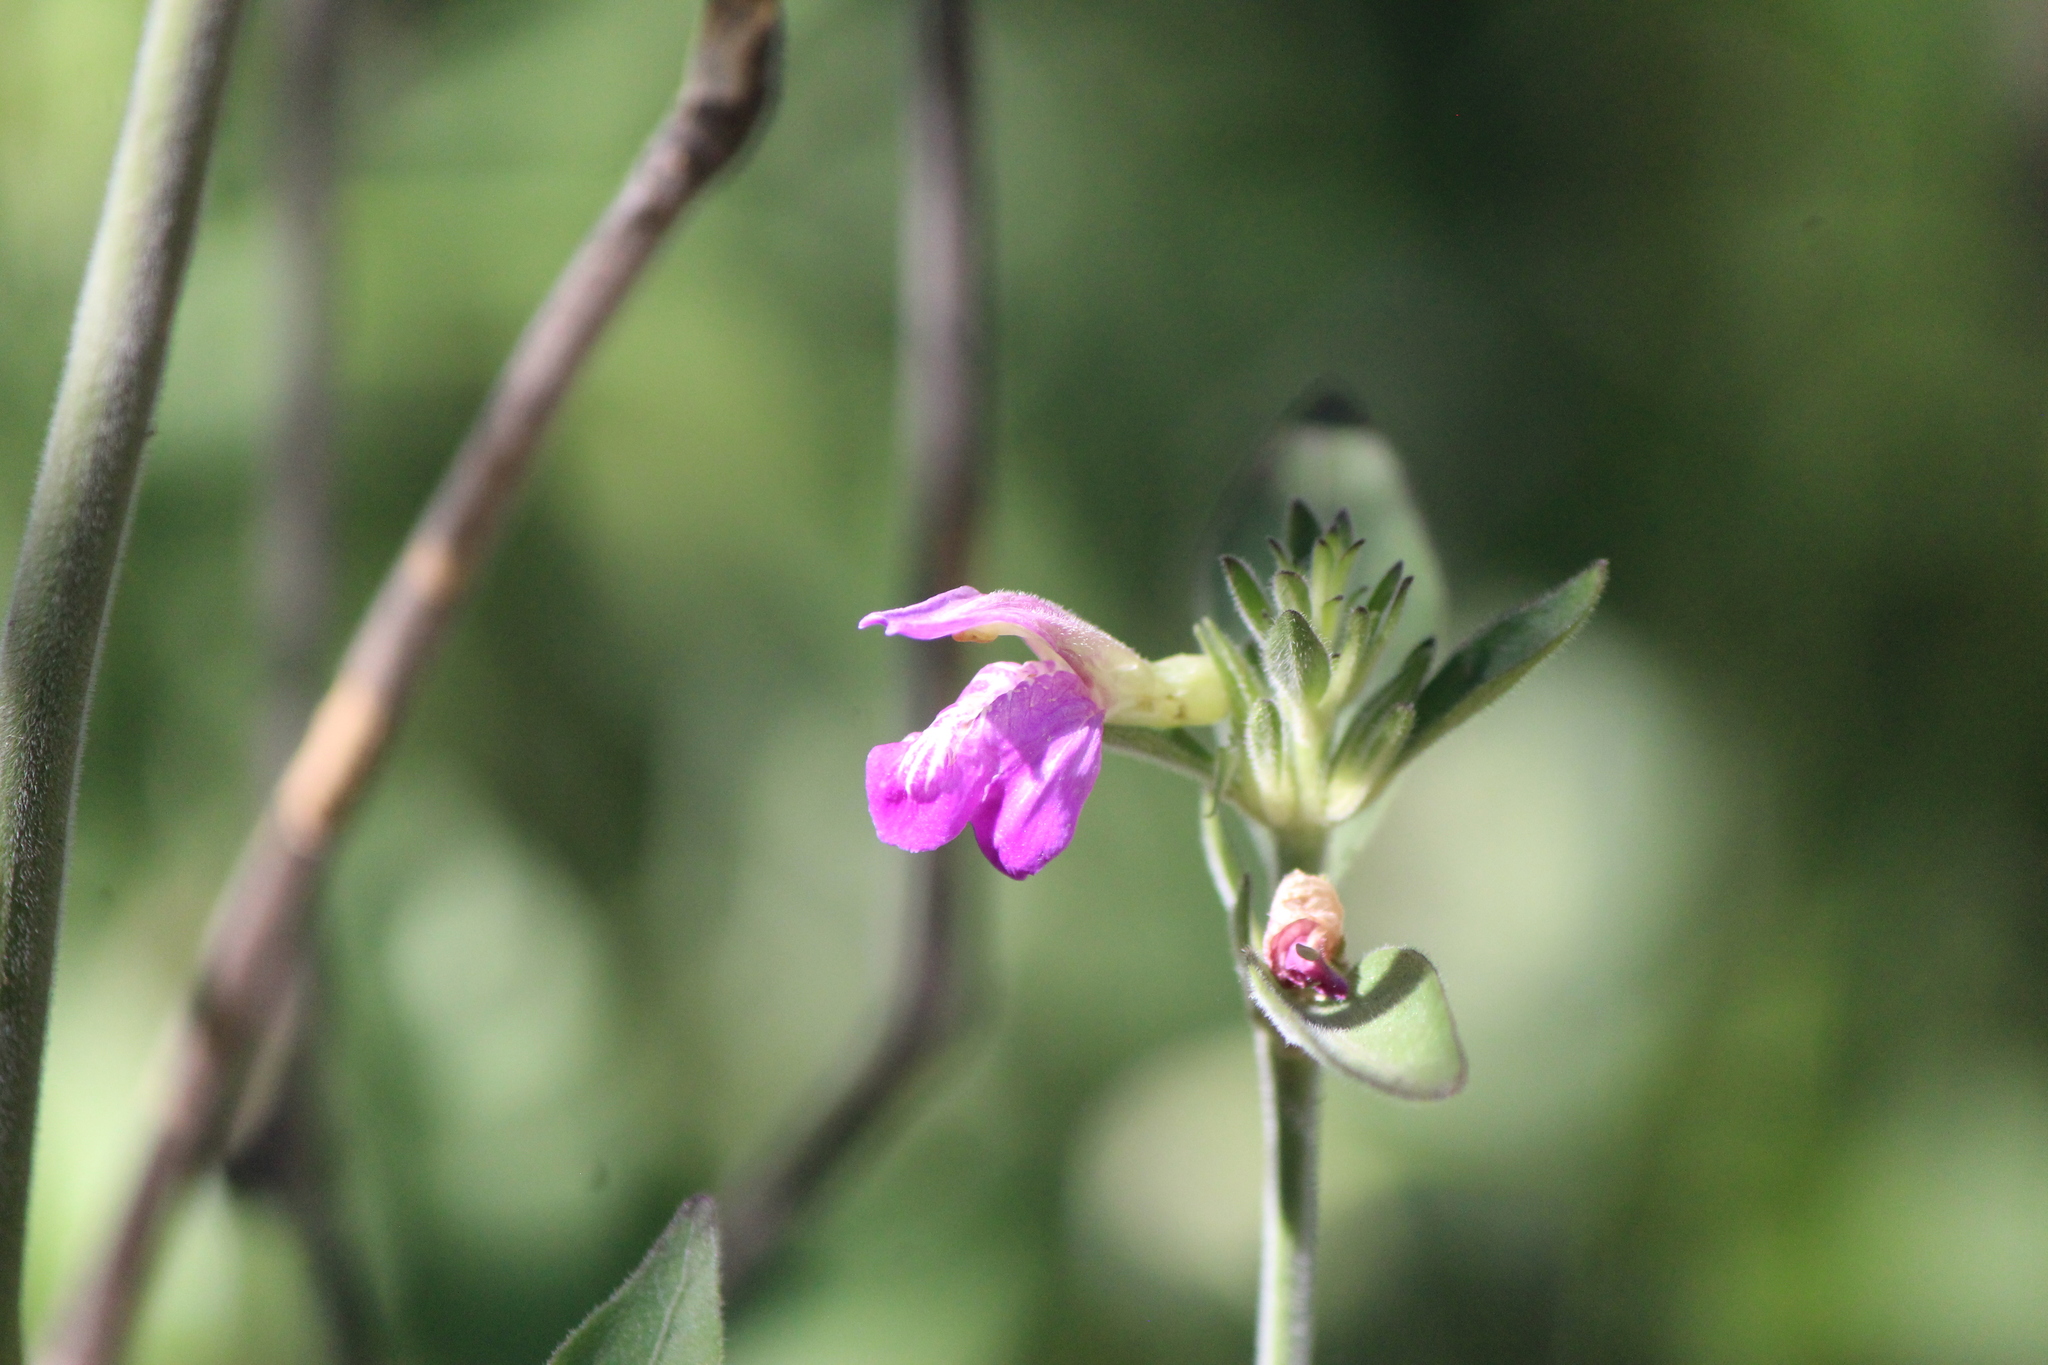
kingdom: Plantae
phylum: Tracheophyta
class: Magnoliopsida
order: Lamiales
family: Acanthaceae
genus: Justicia
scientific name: Justicia furcata
